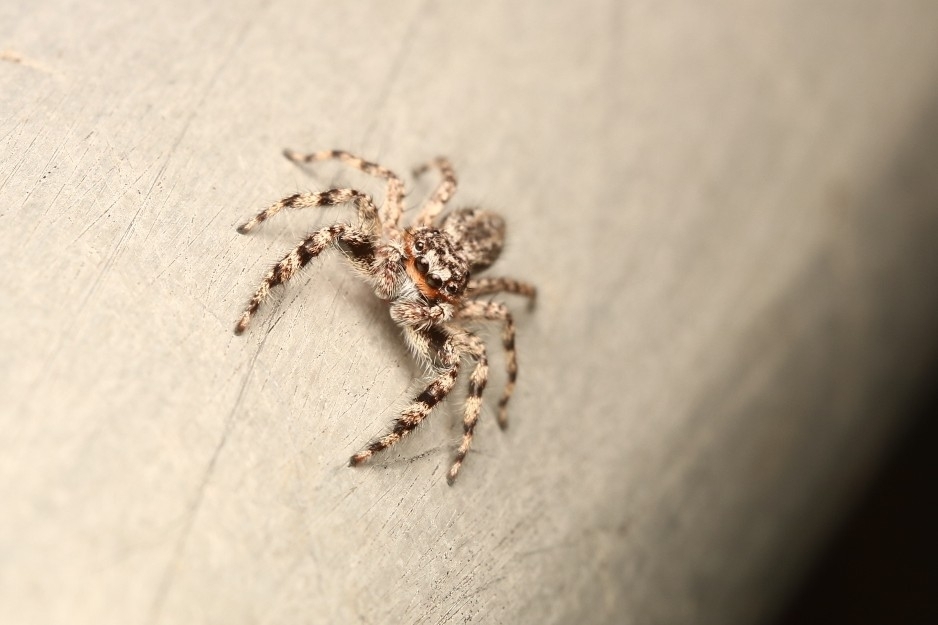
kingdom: Animalia
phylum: Arthropoda
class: Arachnida
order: Araneae
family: Salticidae
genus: Platycryptus
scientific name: Platycryptus undatus
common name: Tan jumping spider
